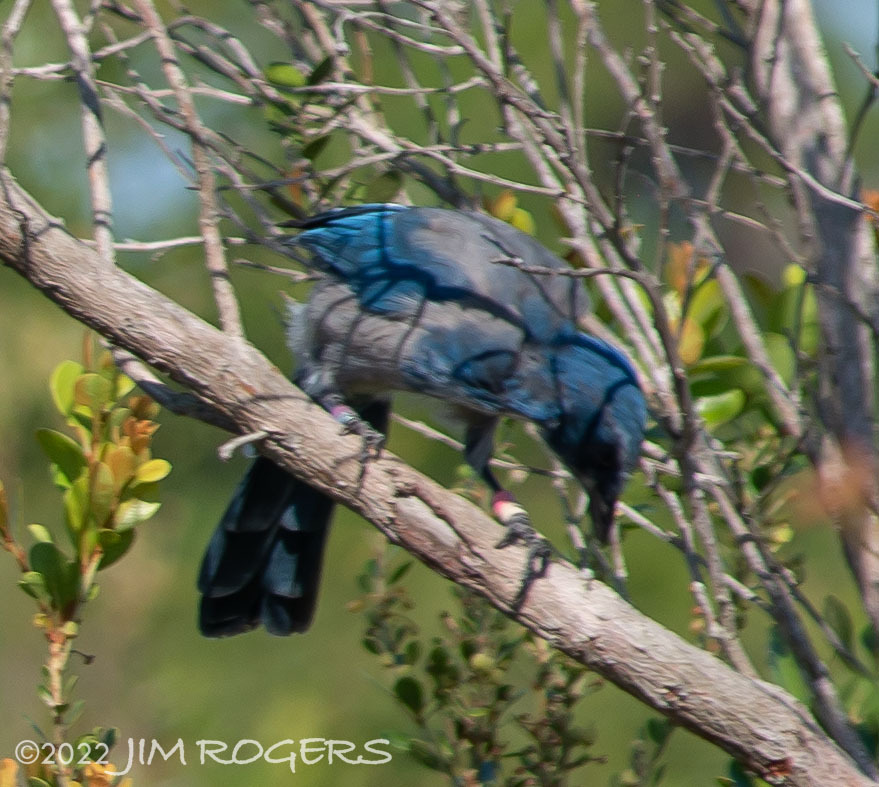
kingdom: Animalia
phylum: Chordata
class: Aves
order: Passeriformes
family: Corvidae
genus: Aphelocoma
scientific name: Aphelocoma coerulescens
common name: Florida scrub jay
